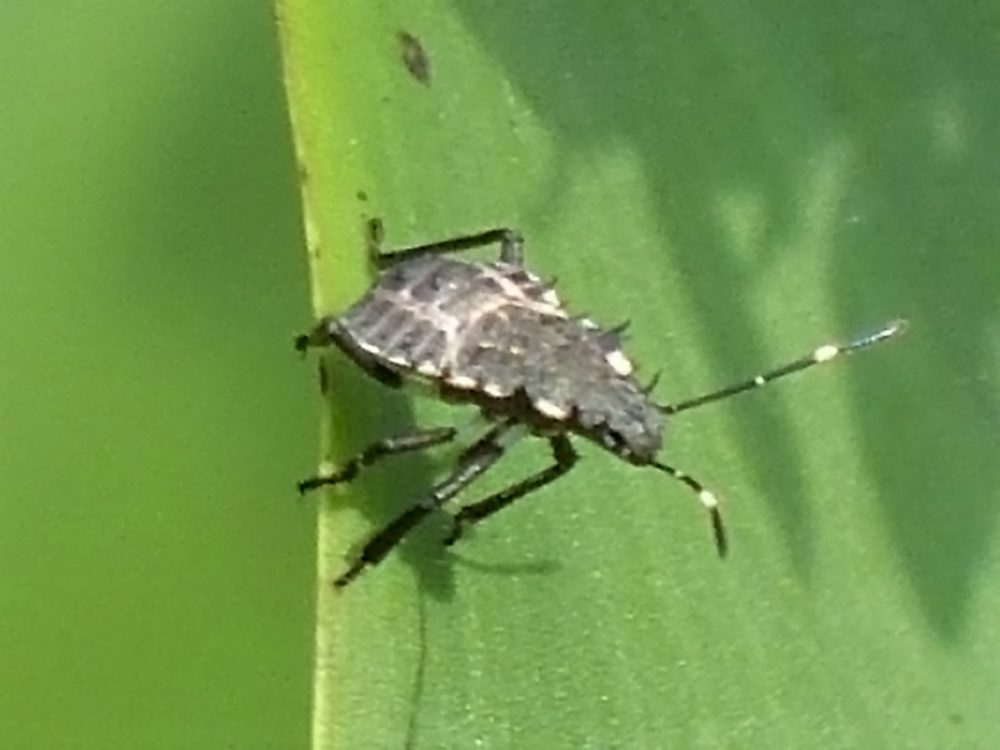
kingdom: Animalia
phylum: Arthropoda
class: Insecta
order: Hemiptera
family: Pentatomidae
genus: Halyomorpha
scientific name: Halyomorpha halys
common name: Brown marmorated stink bug
